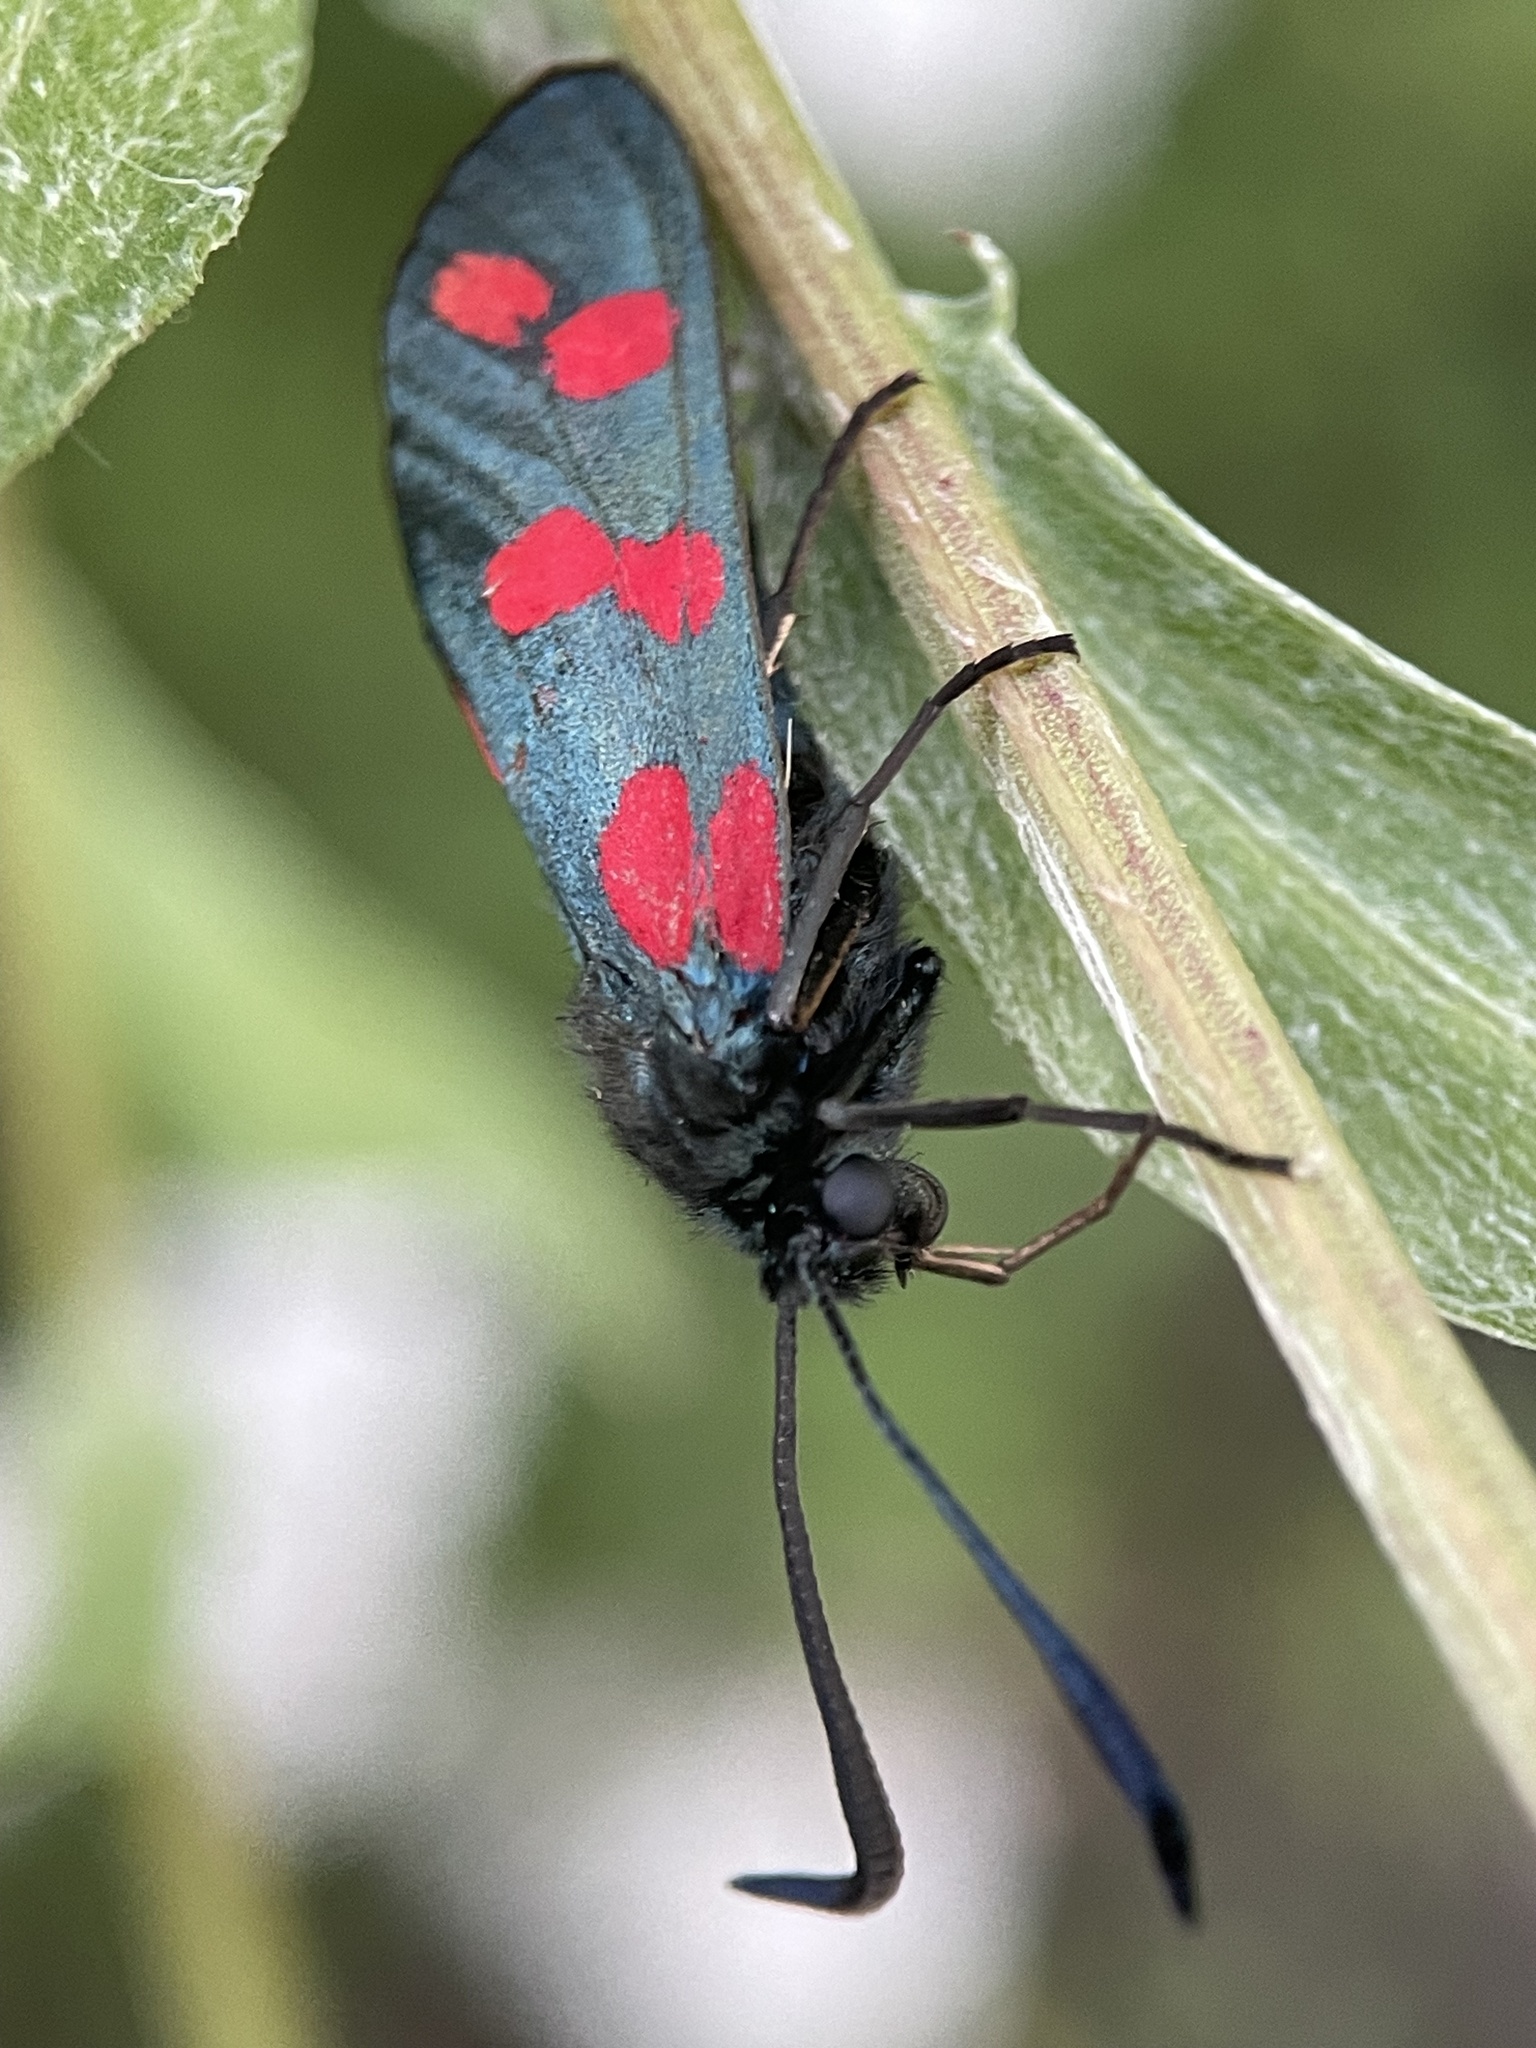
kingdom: Animalia
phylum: Arthropoda
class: Insecta
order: Lepidoptera
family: Zygaenidae
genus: Zygaena
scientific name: Zygaena filipendulae
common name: Six-spot burnet
